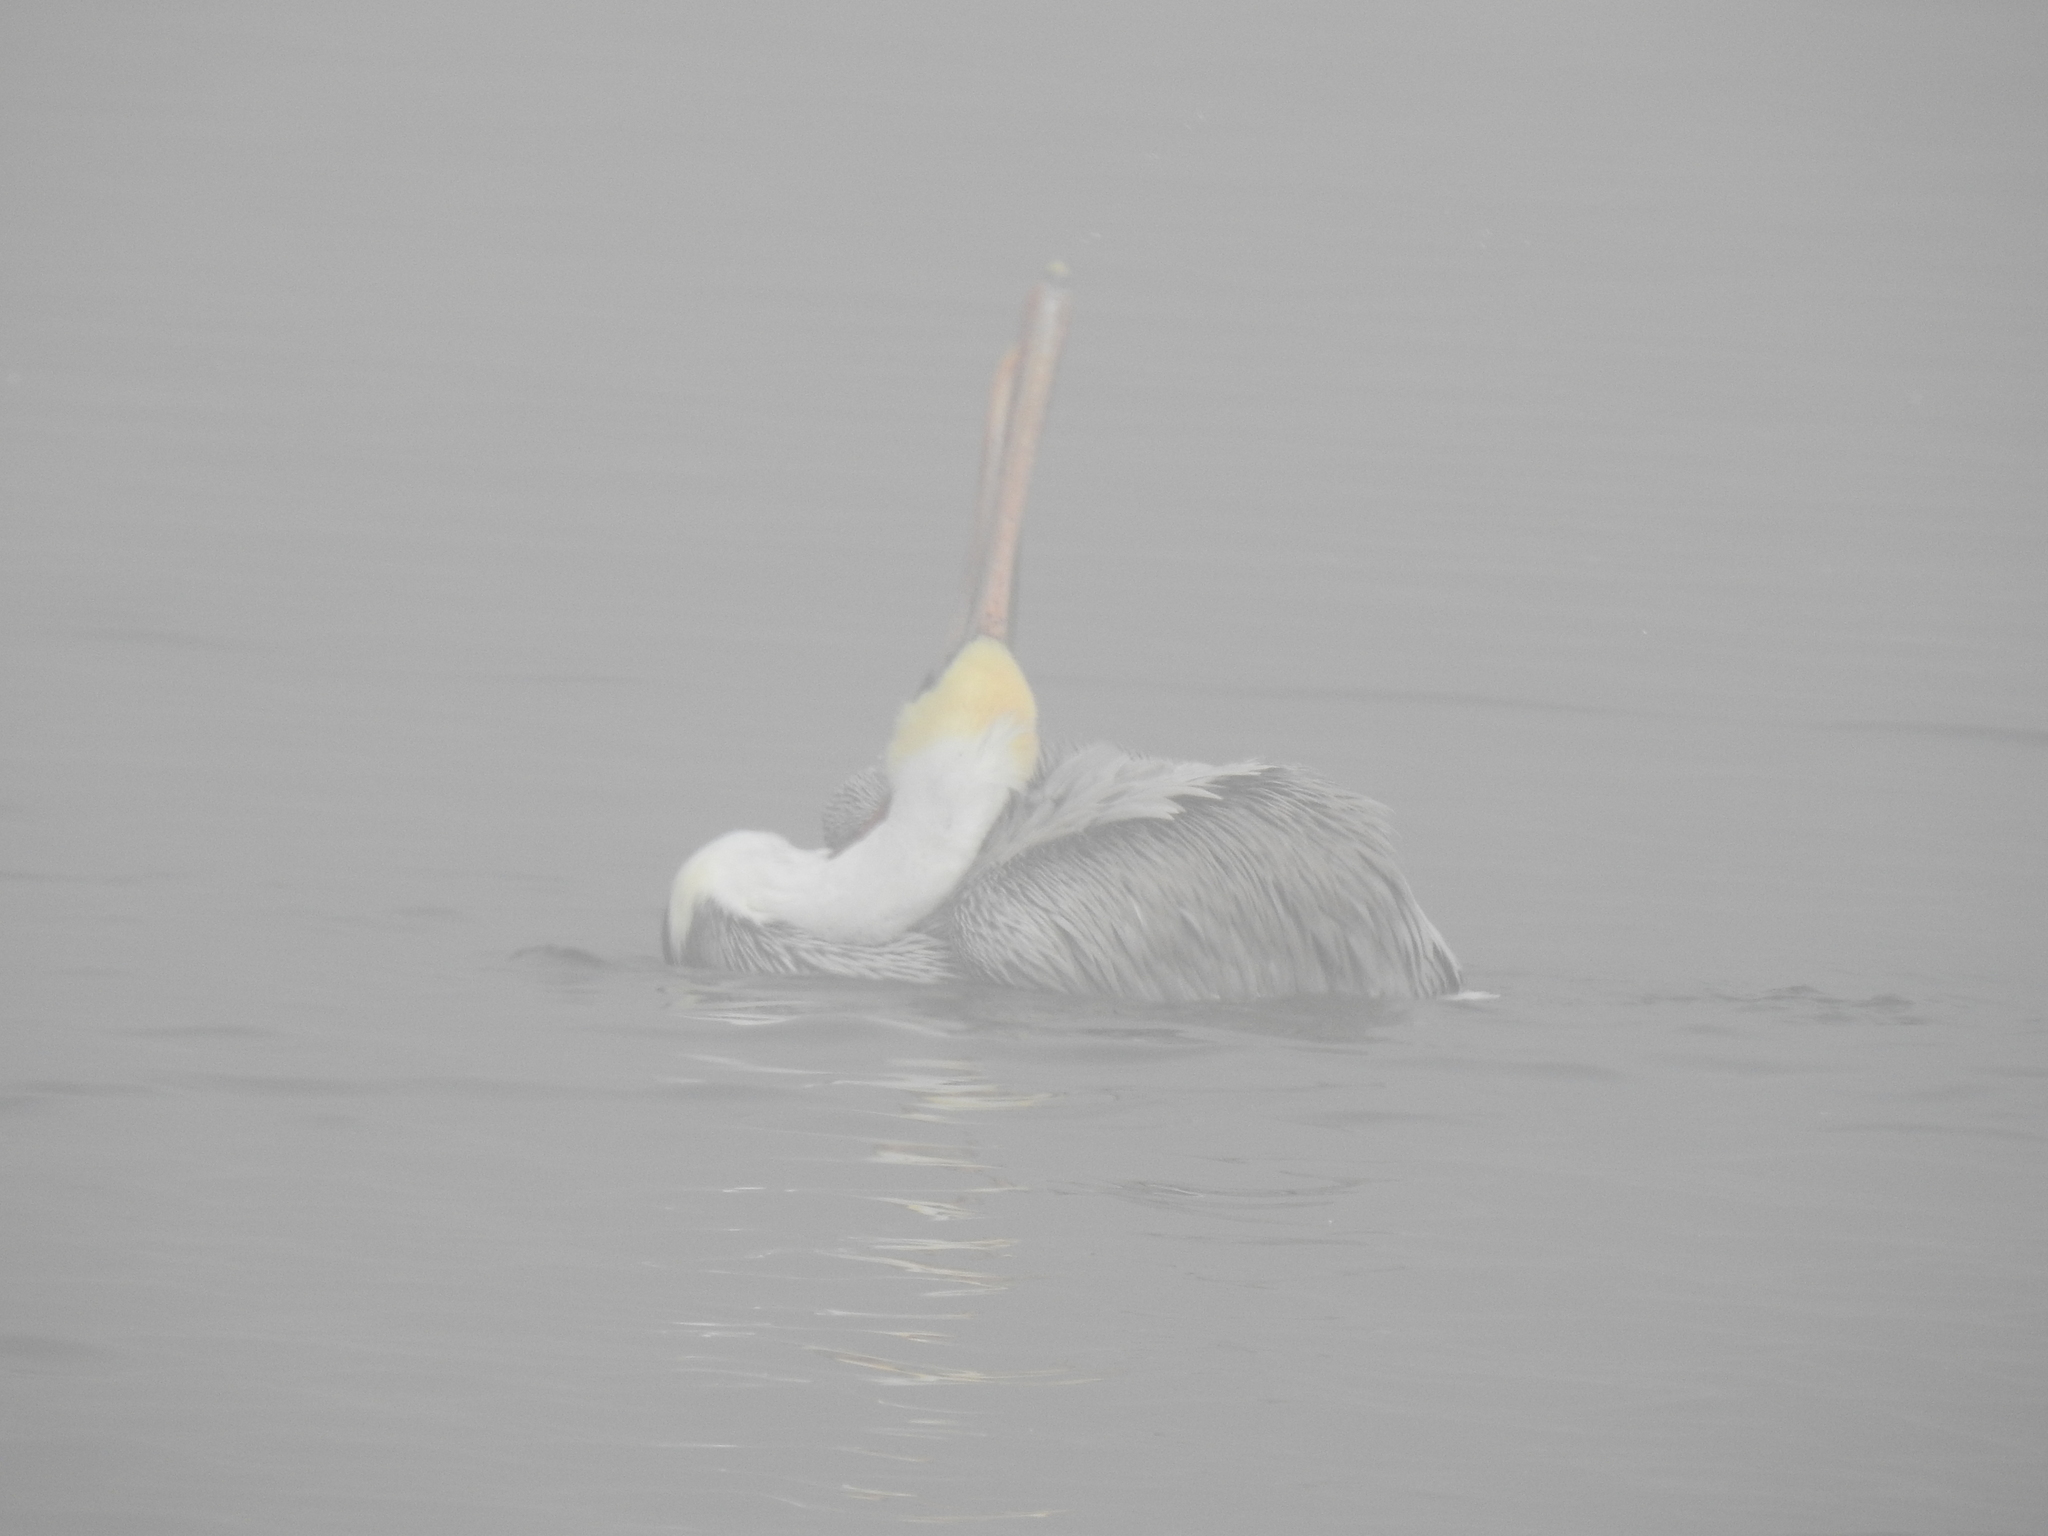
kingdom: Animalia
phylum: Chordata
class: Aves
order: Pelecaniformes
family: Pelecanidae
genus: Pelecanus
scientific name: Pelecanus occidentalis
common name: Brown pelican
